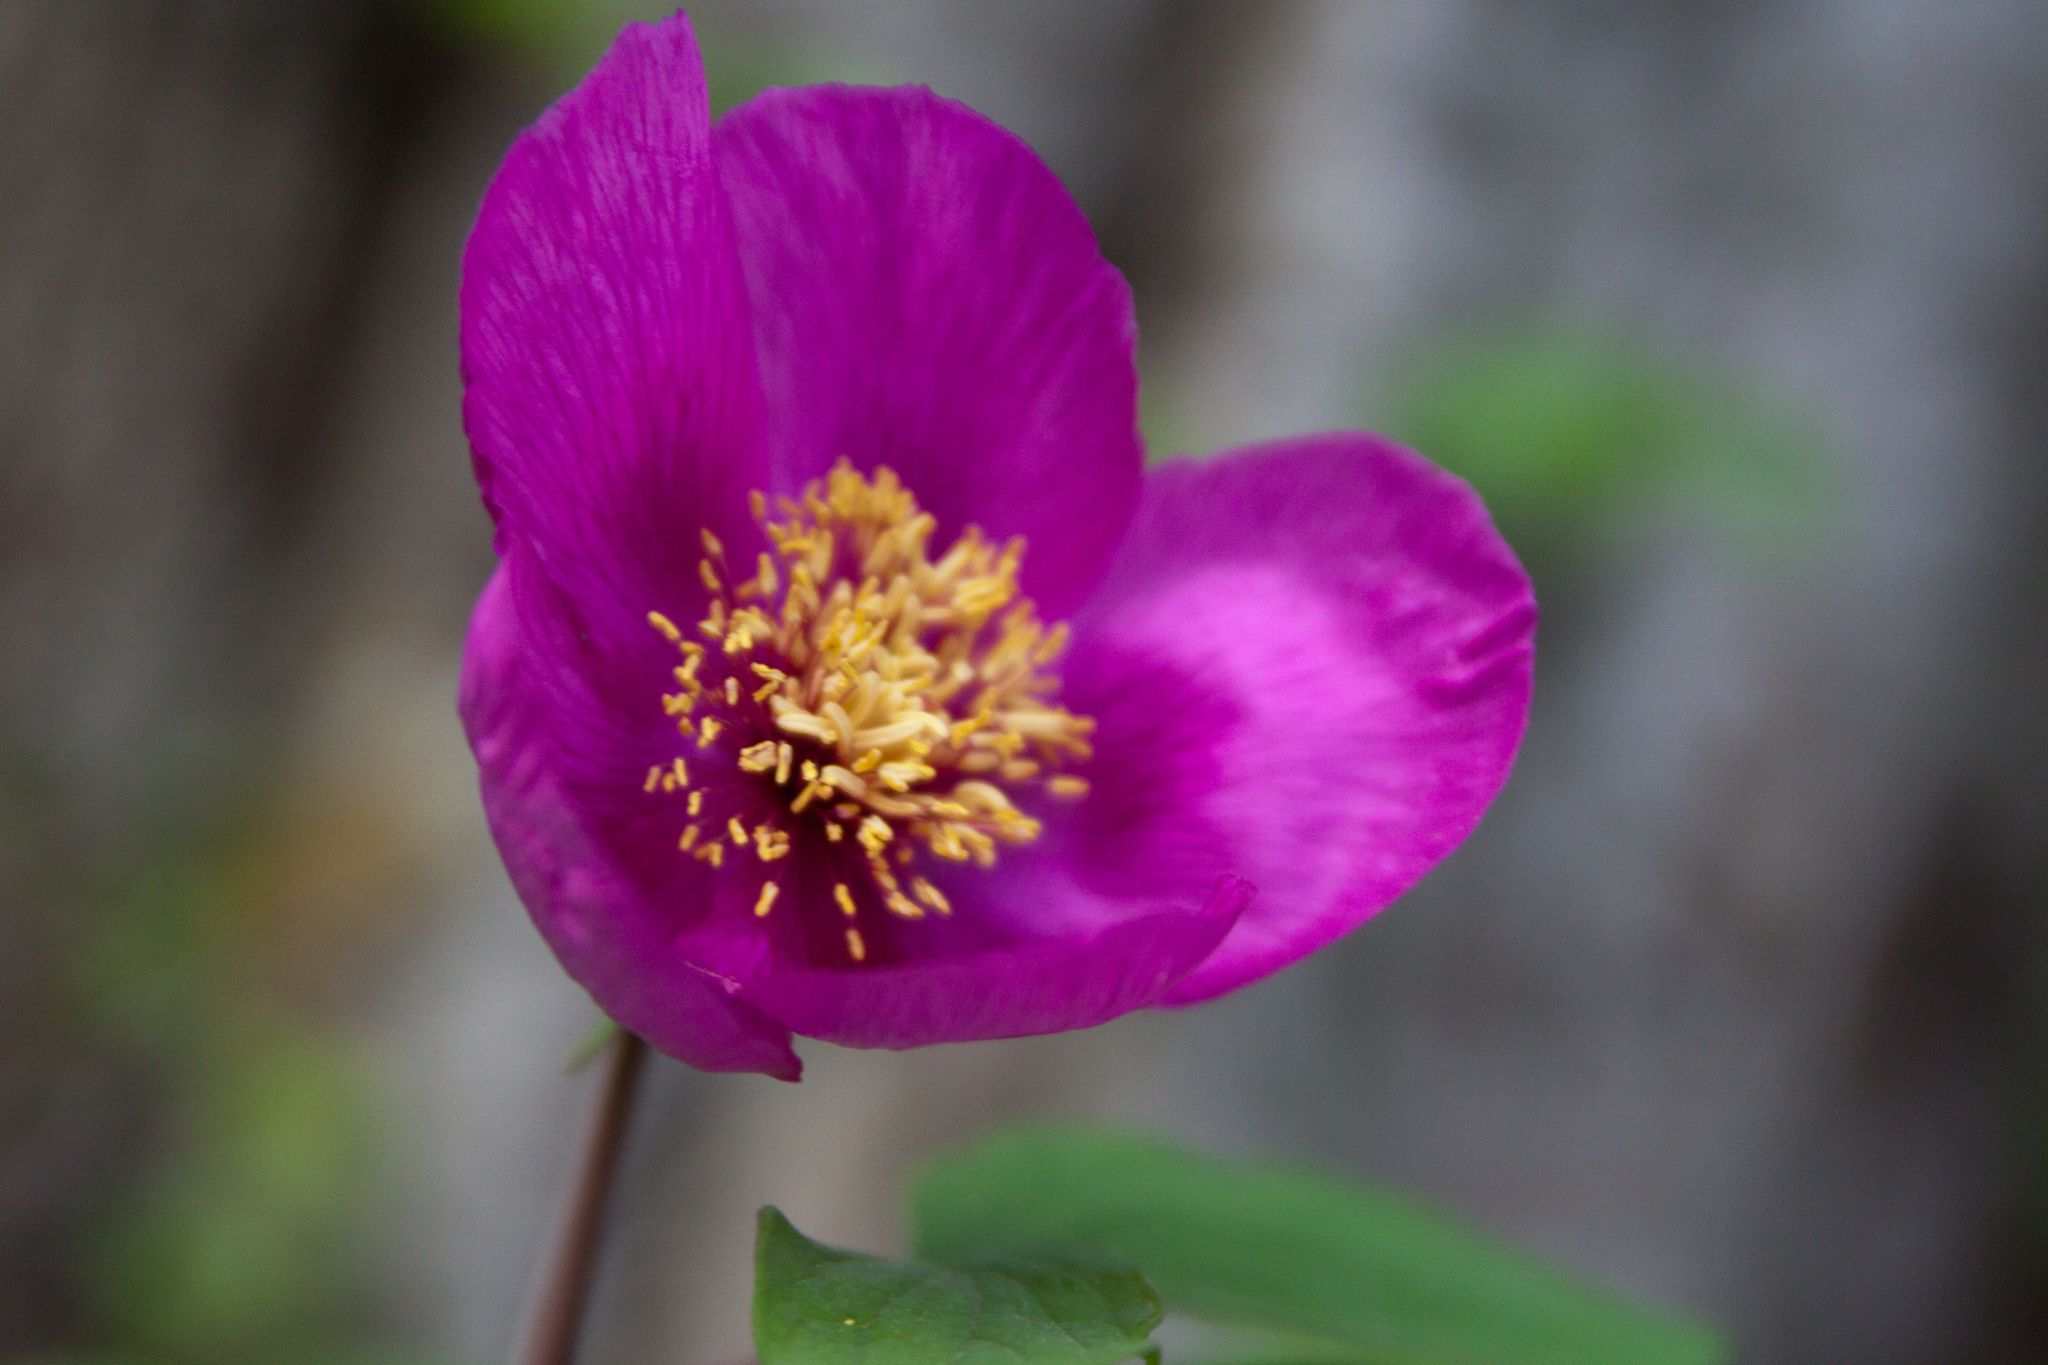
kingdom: Plantae
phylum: Tracheophyta
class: Magnoliopsida
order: Saxifragales
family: Paeoniaceae
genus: Paeonia
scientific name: Paeonia caucasica
